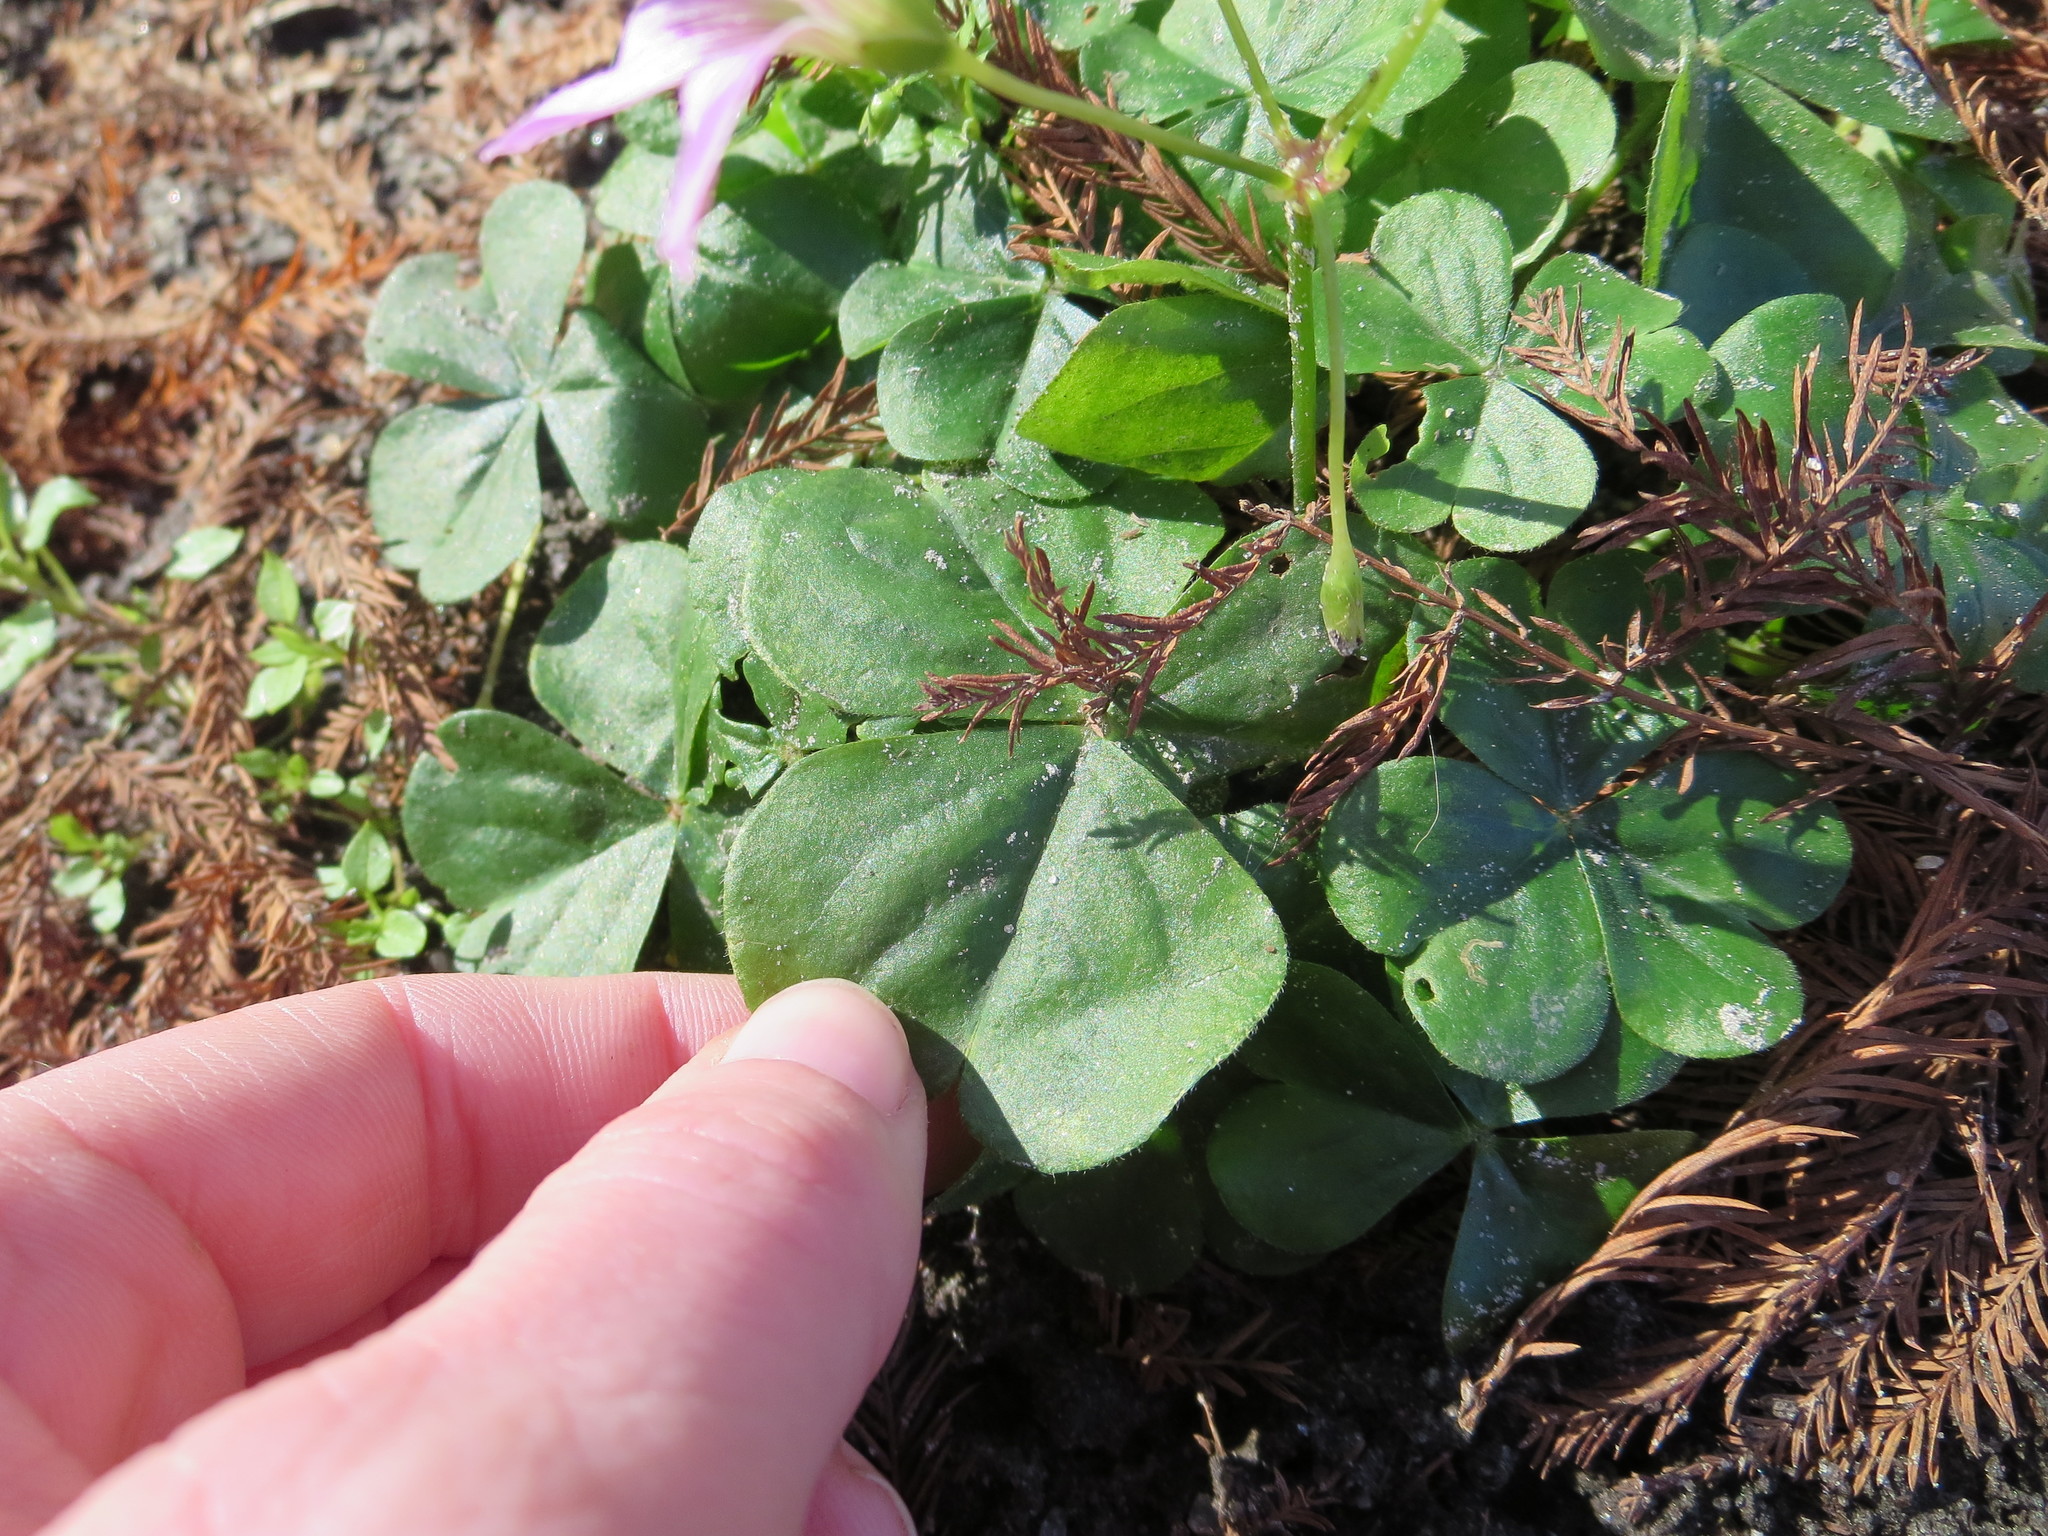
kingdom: Plantae
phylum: Tracheophyta
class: Magnoliopsida
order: Oxalidales
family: Oxalidaceae
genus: Oxalis
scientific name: Oxalis debilis
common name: Large-flowered pink-sorrel
